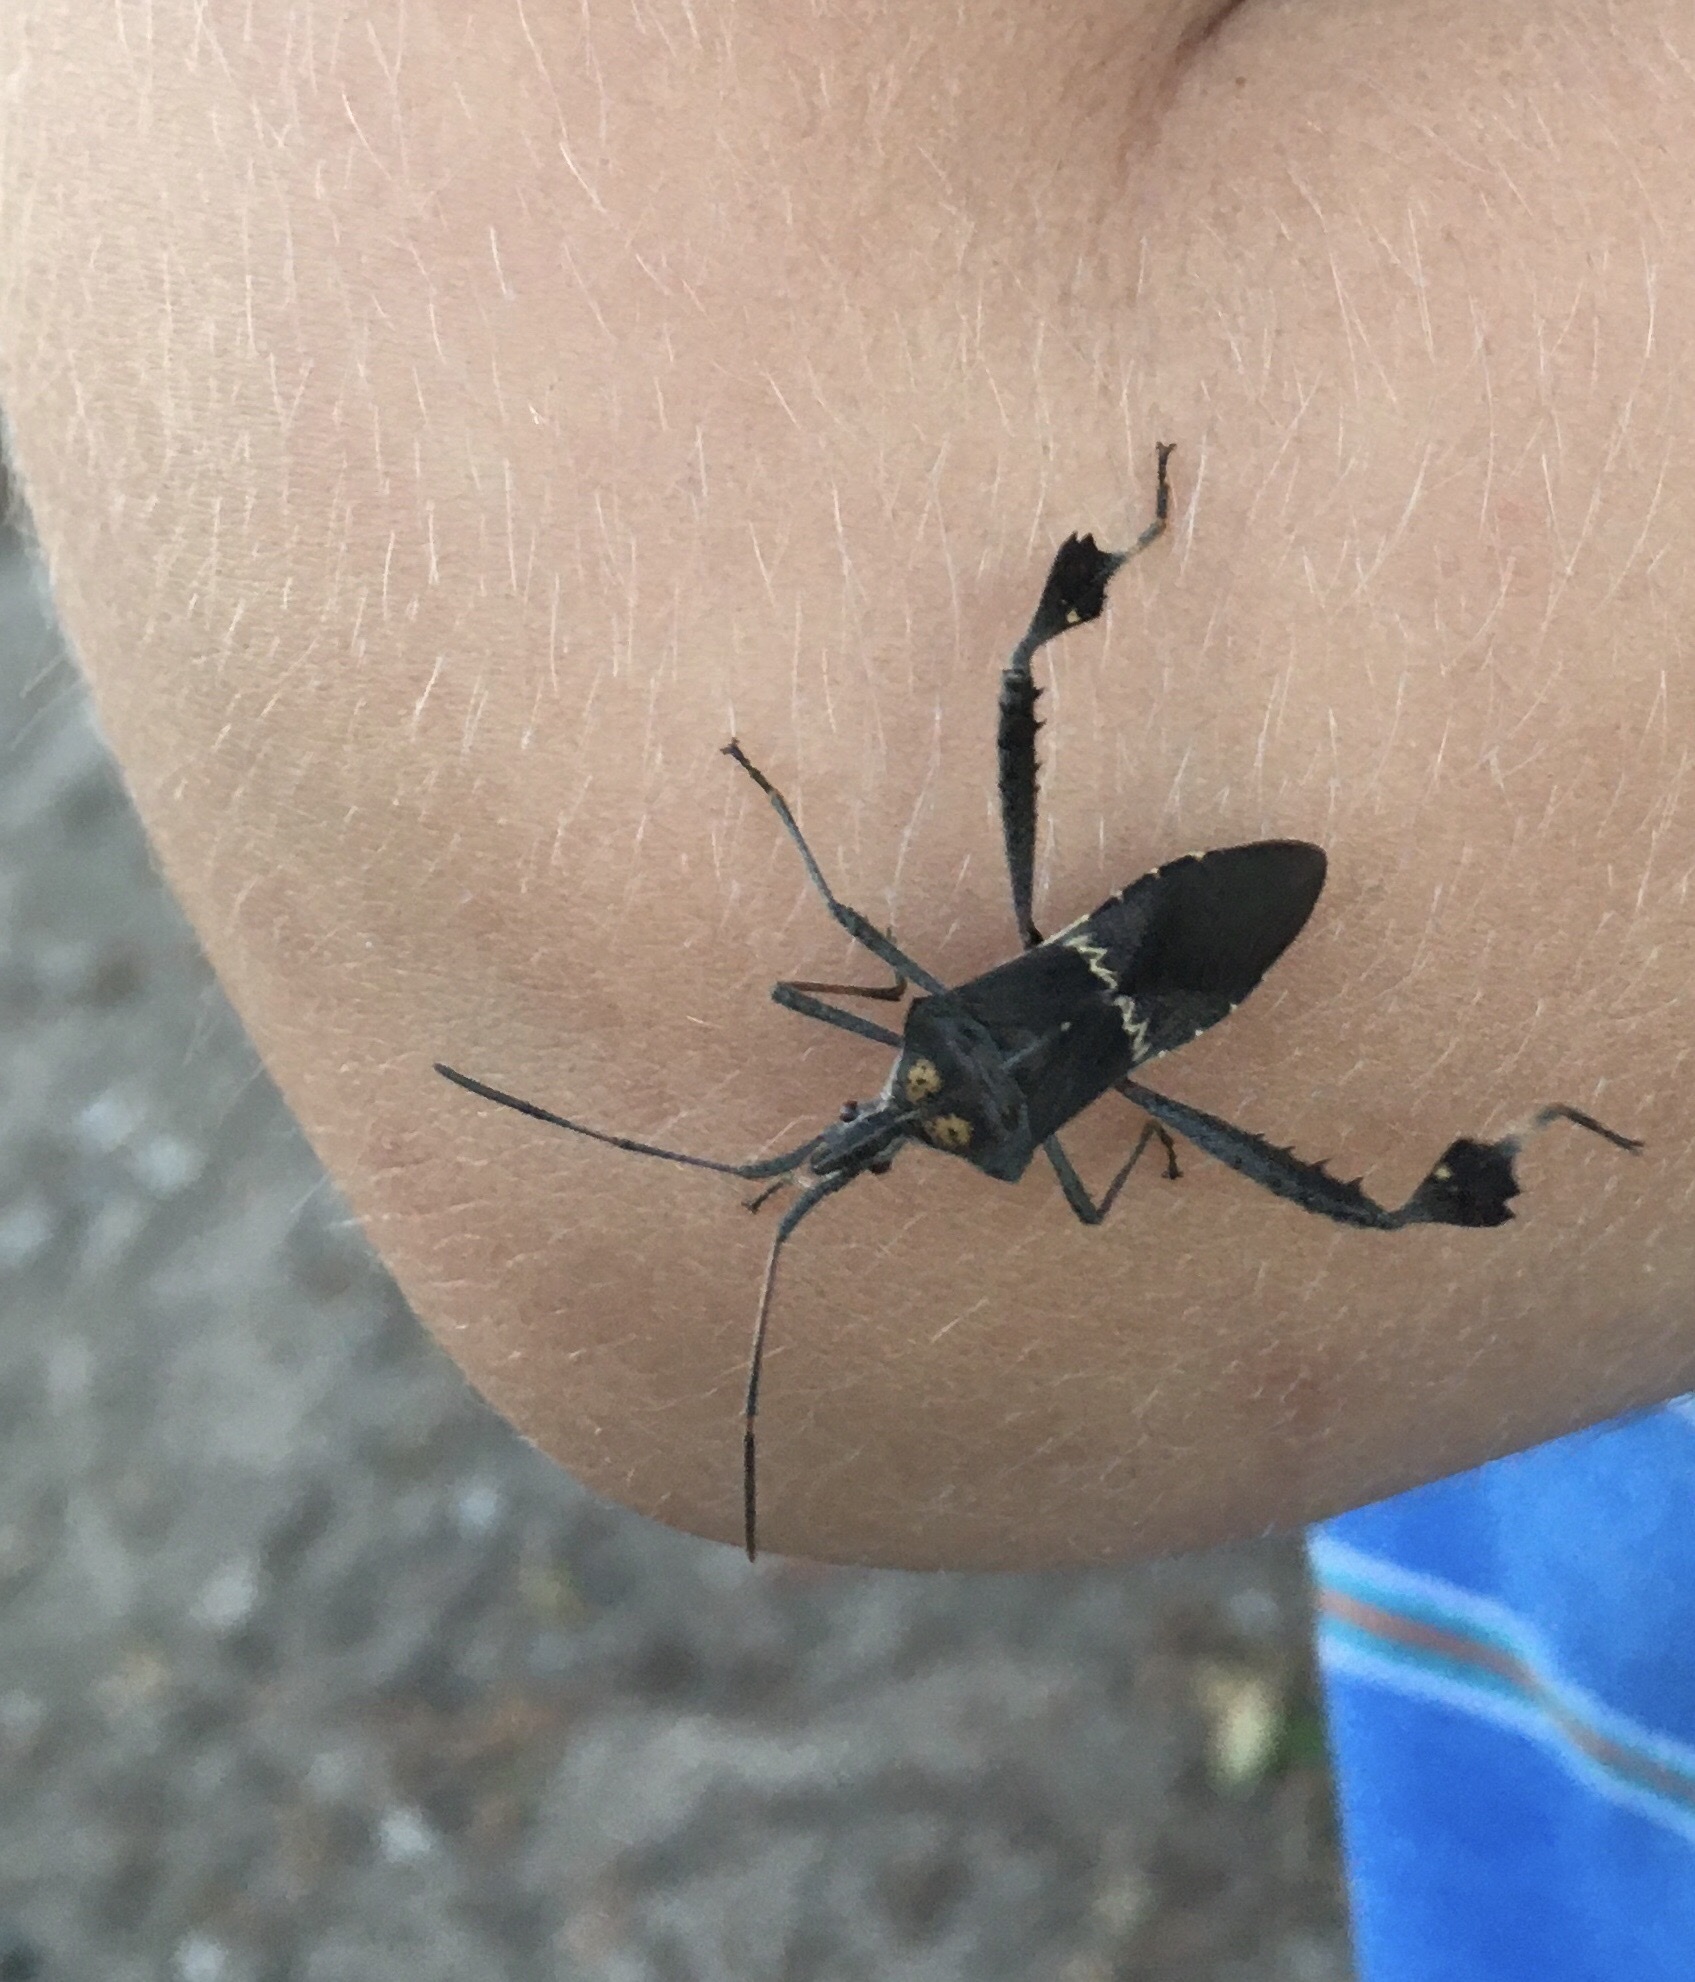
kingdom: Animalia
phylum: Arthropoda
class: Insecta
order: Hemiptera
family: Coreidae
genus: Leptoglossus
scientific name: Leptoglossus zonatus
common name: Large-legged bug
